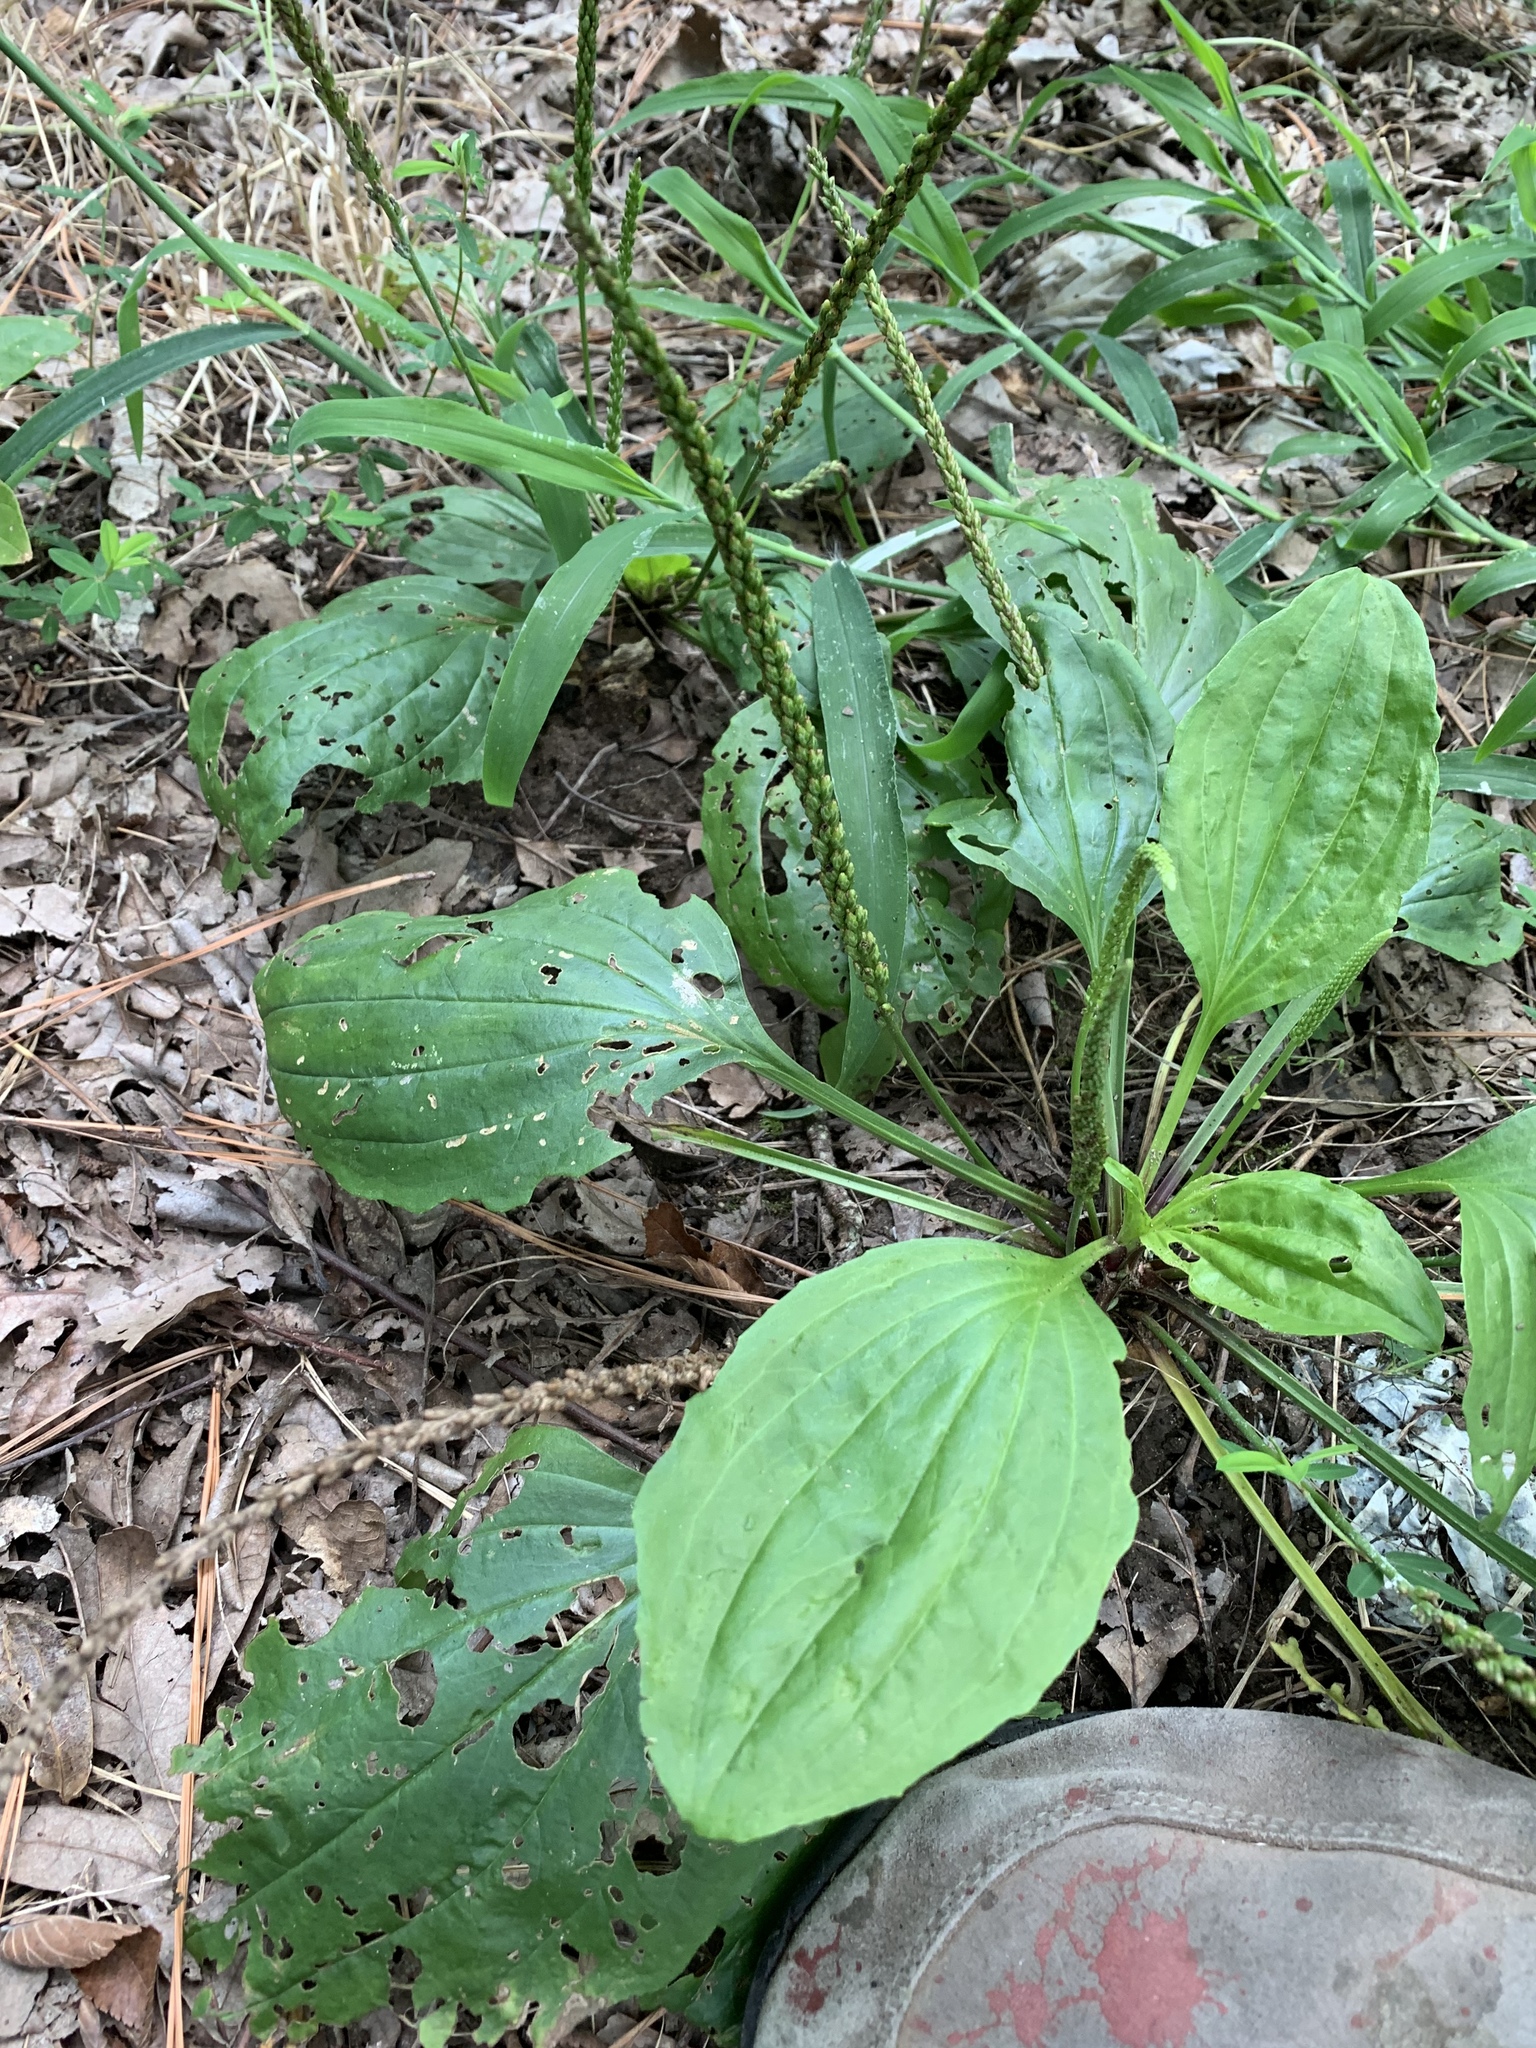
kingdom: Plantae
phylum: Tracheophyta
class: Magnoliopsida
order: Lamiales
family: Plantaginaceae
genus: Plantago
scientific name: Plantago major
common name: Common plantain
